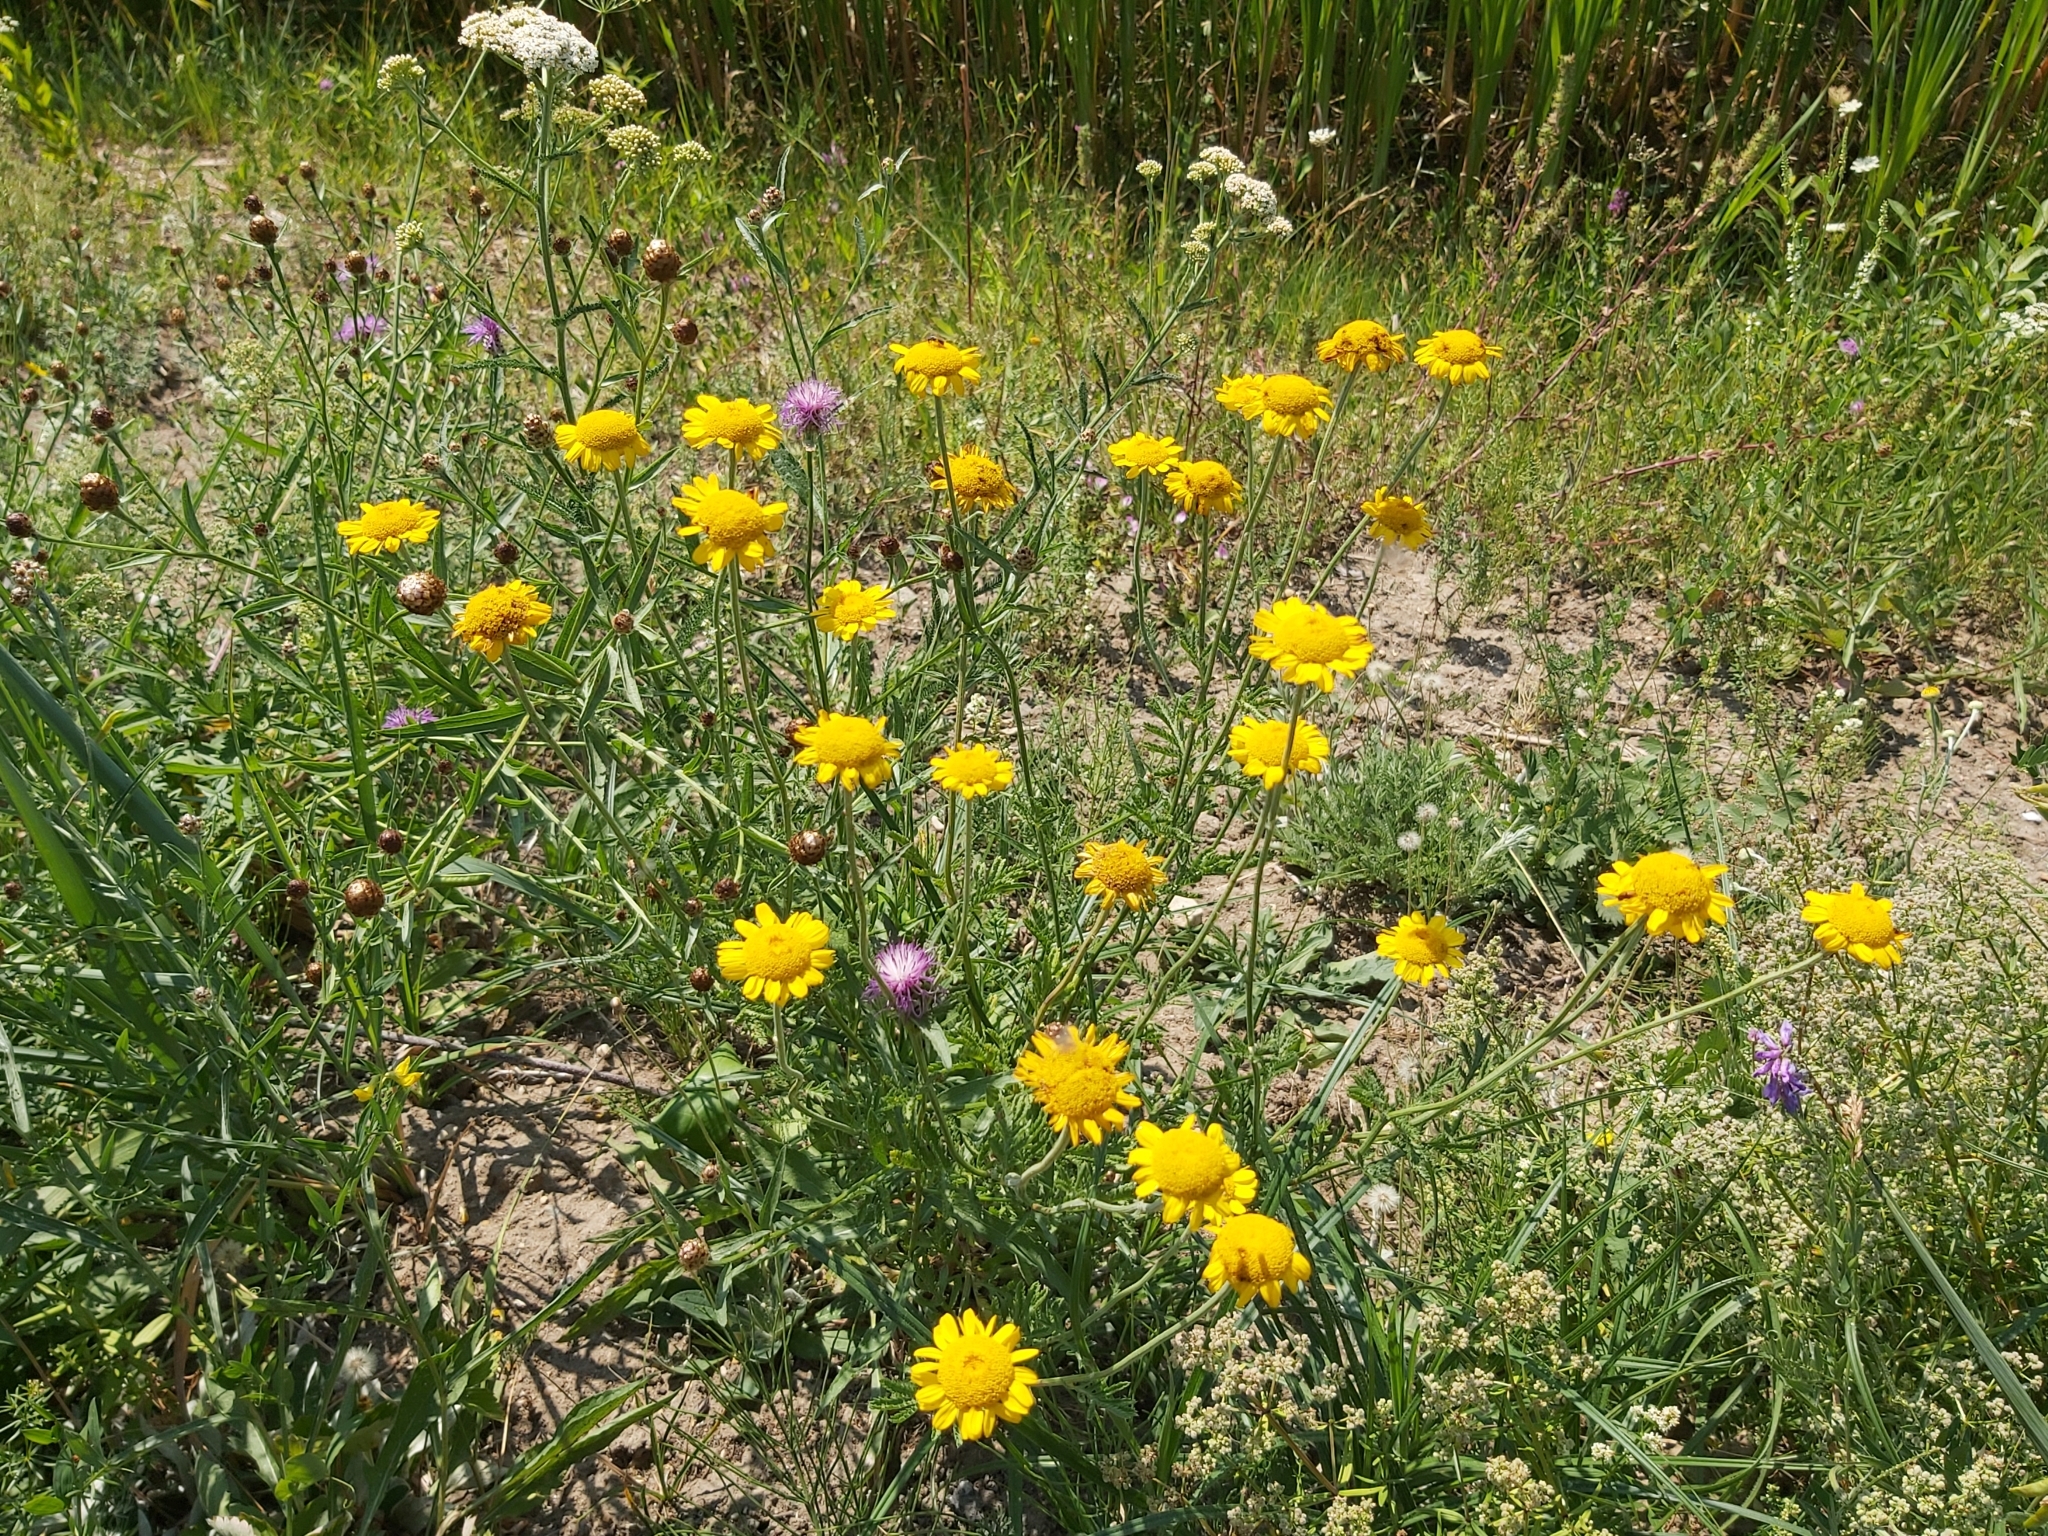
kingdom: Plantae
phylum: Tracheophyta
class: Magnoliopsida
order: Asterales
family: Asteraceae
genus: Cota
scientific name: Cota tinctoria
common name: Golden chamomile
